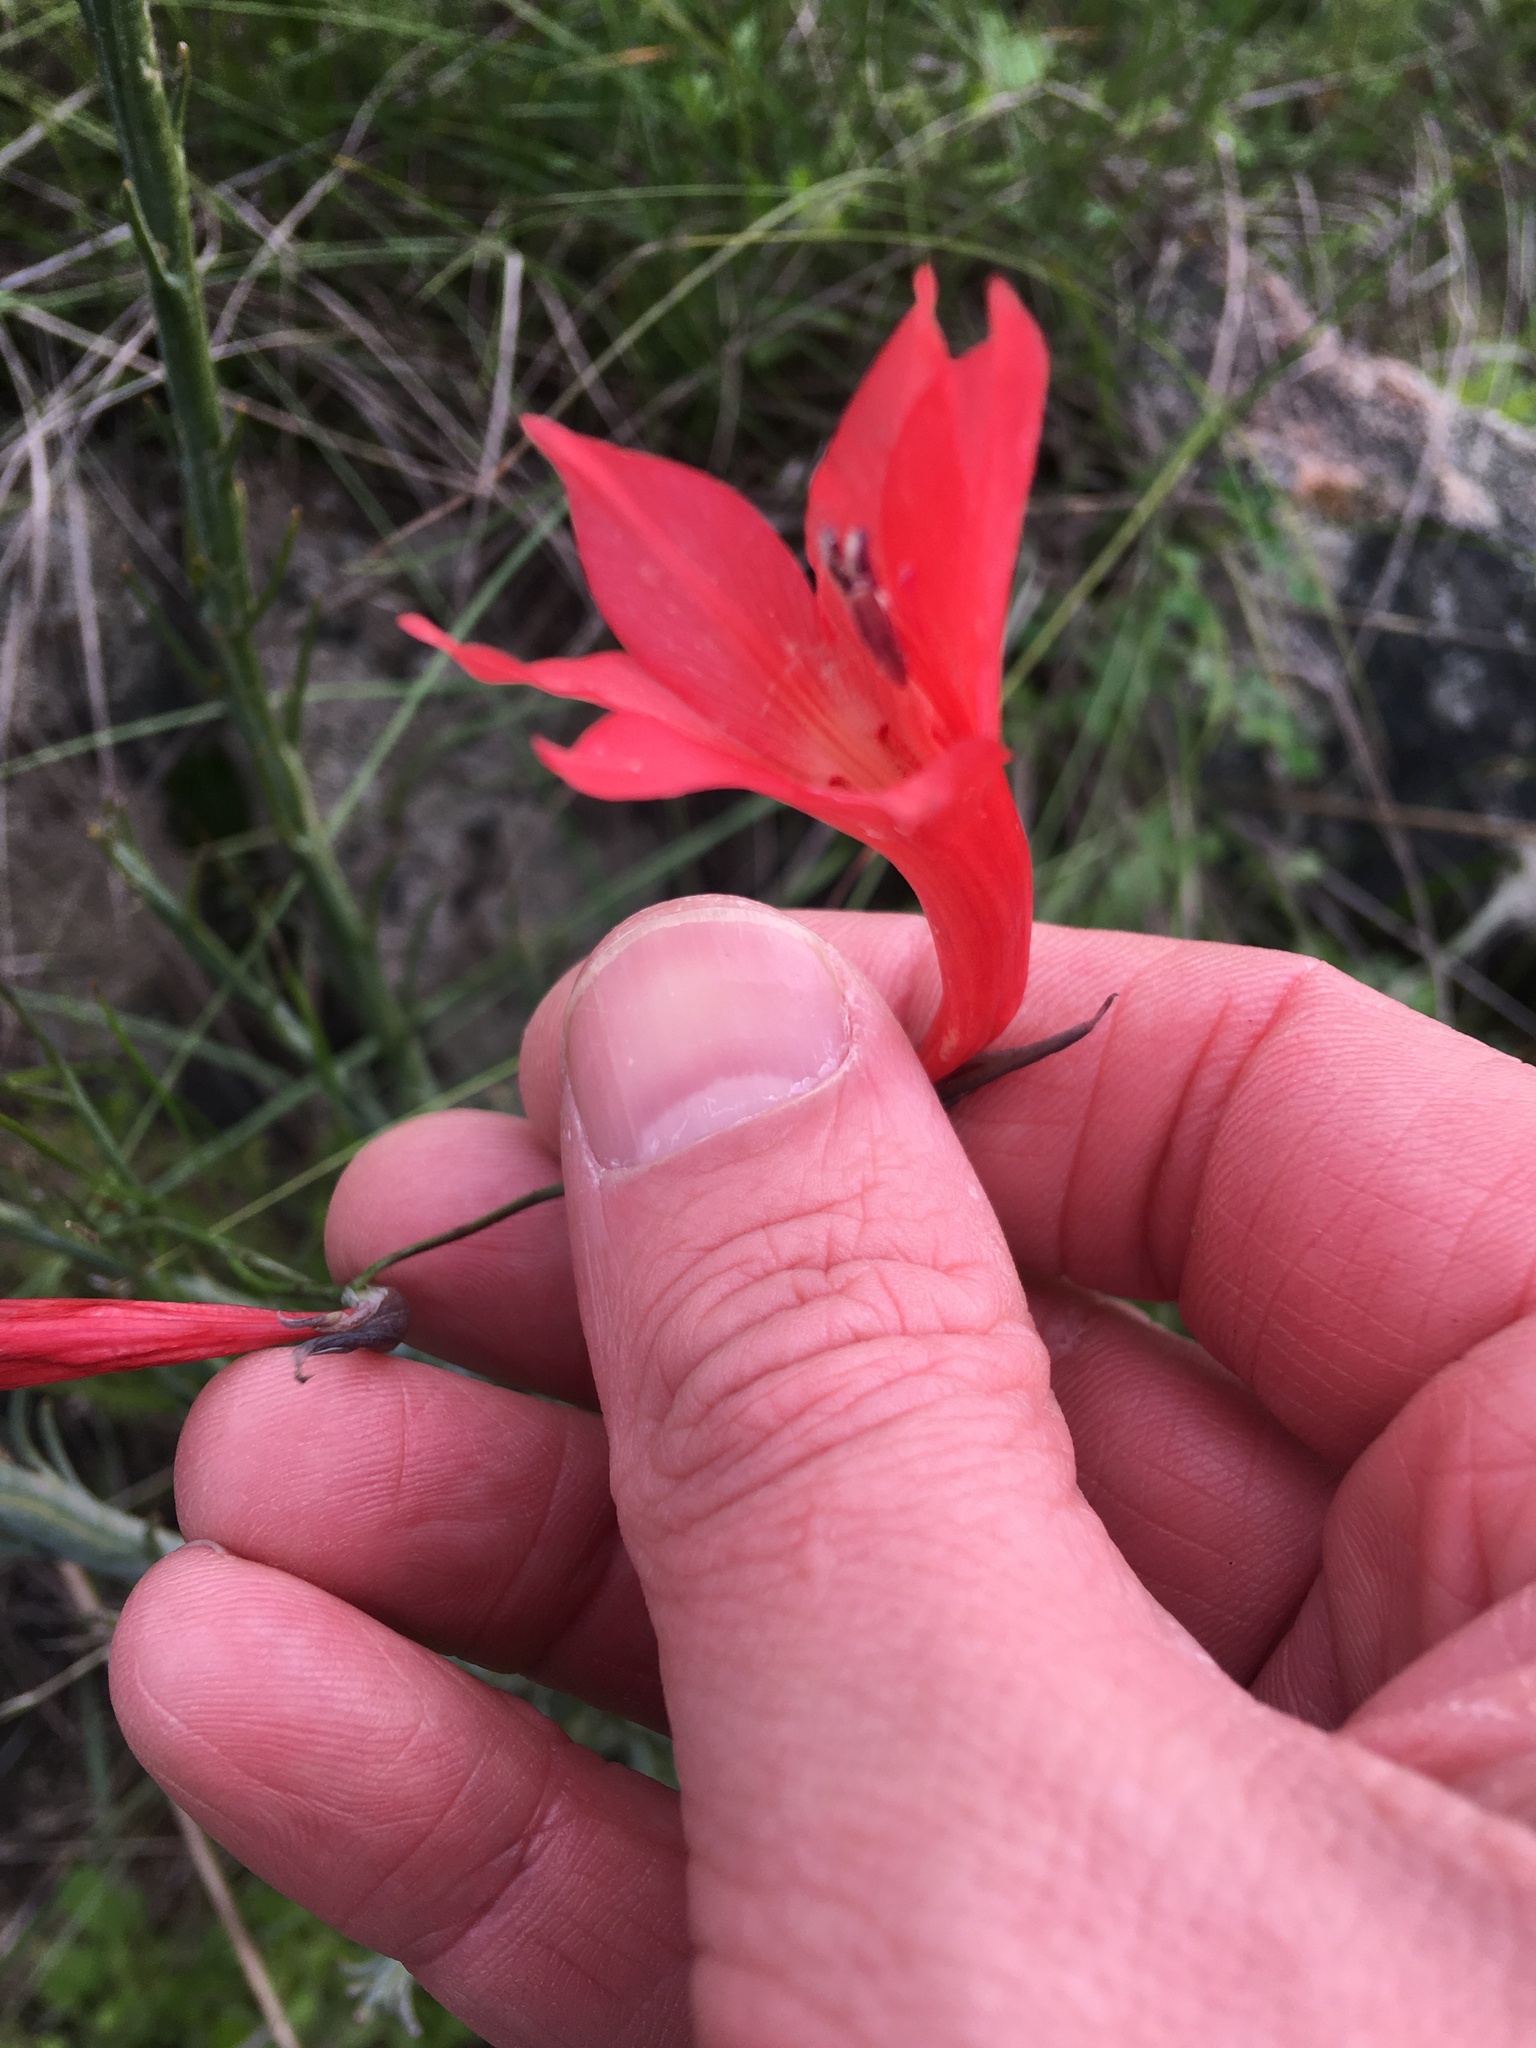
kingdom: Plantae
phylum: Tracheophyta
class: Liliopsida
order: Asparagales
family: Iridaceae
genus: Gladiolus
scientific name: Gladiolus priorii
